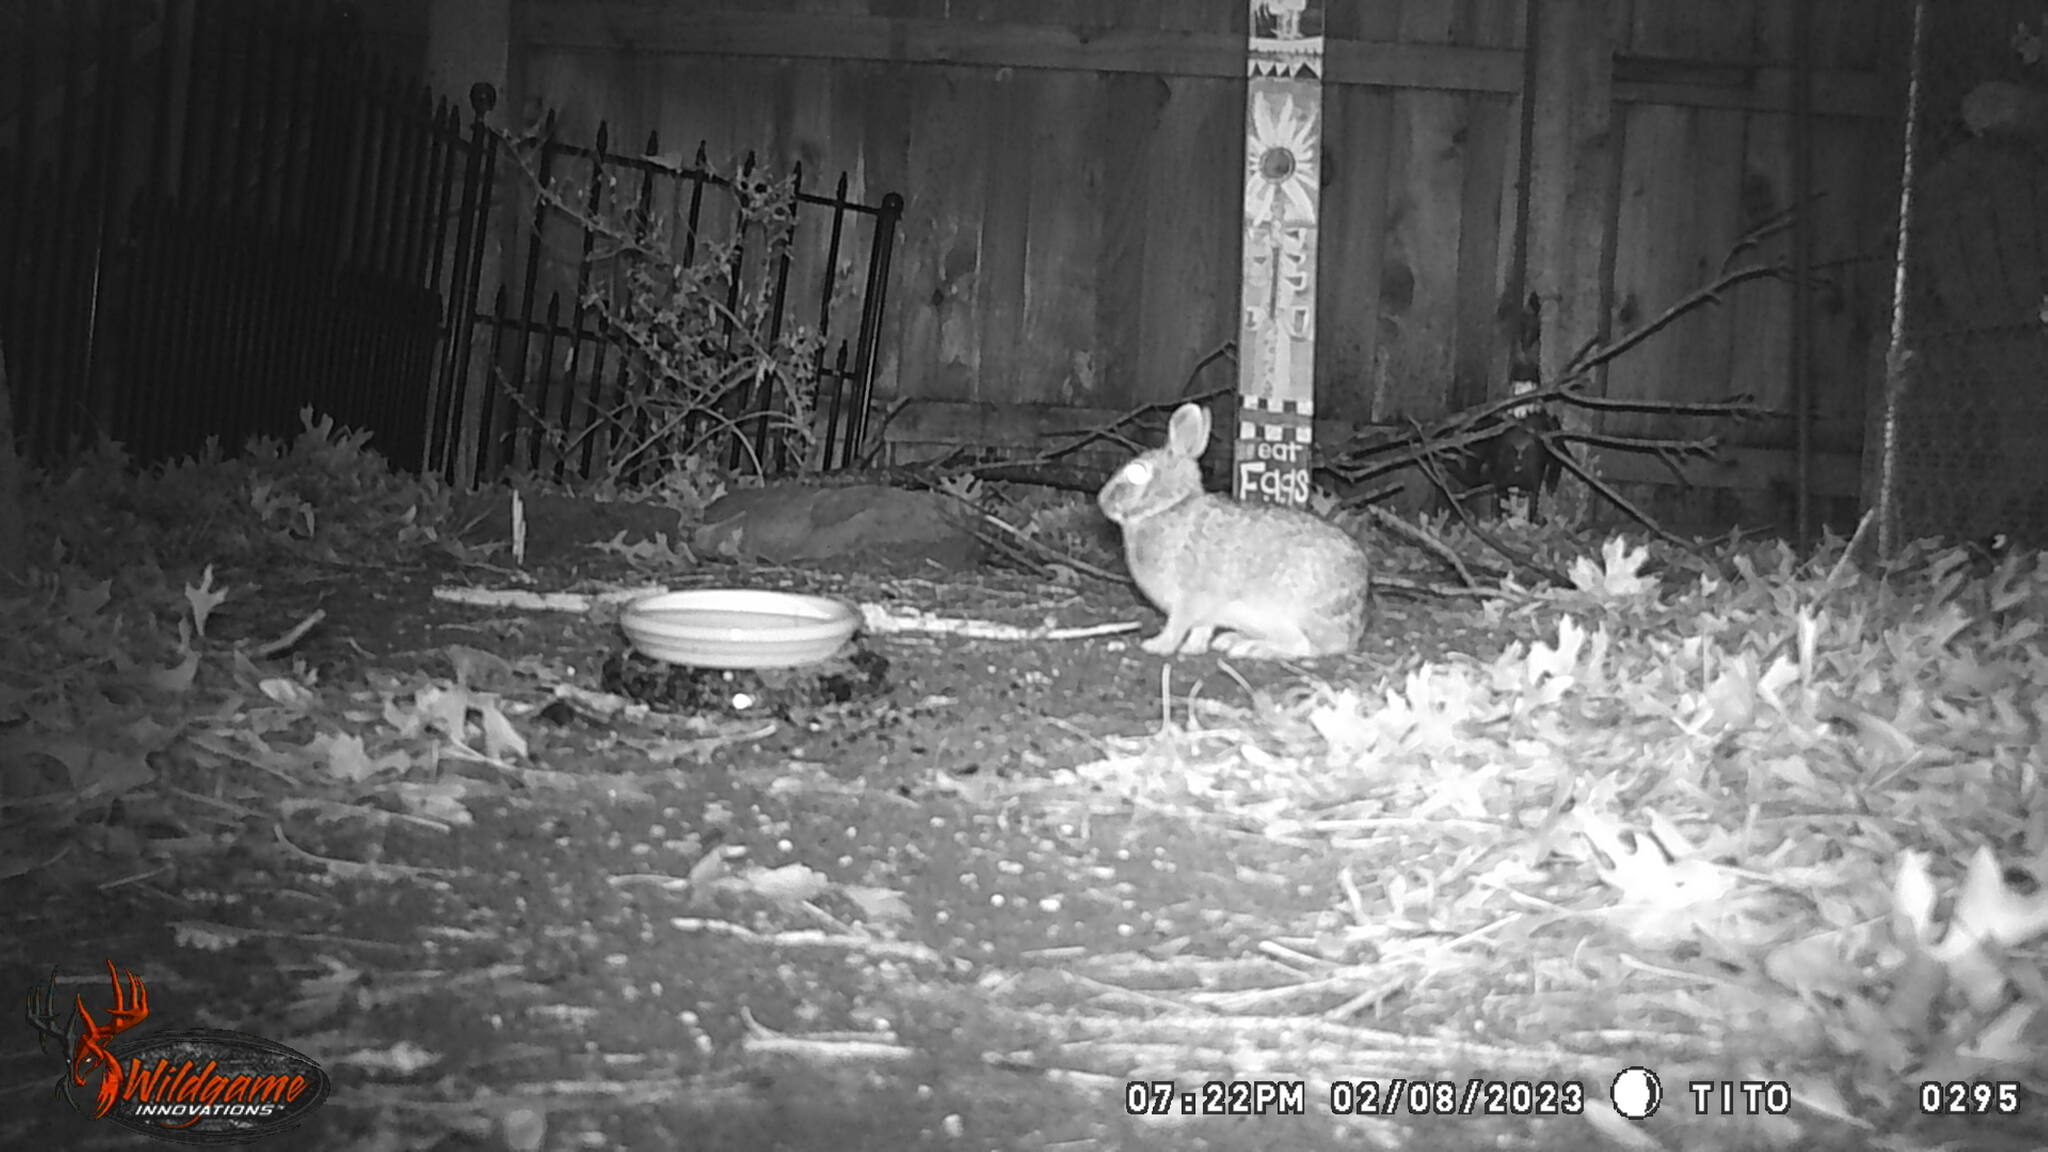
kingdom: Animalia
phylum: Chordata
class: Mammalia
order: Lagomorpha
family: Leporidae
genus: Sylvilagus
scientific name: Sylvilagus floridanus
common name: Eastern cottontail
